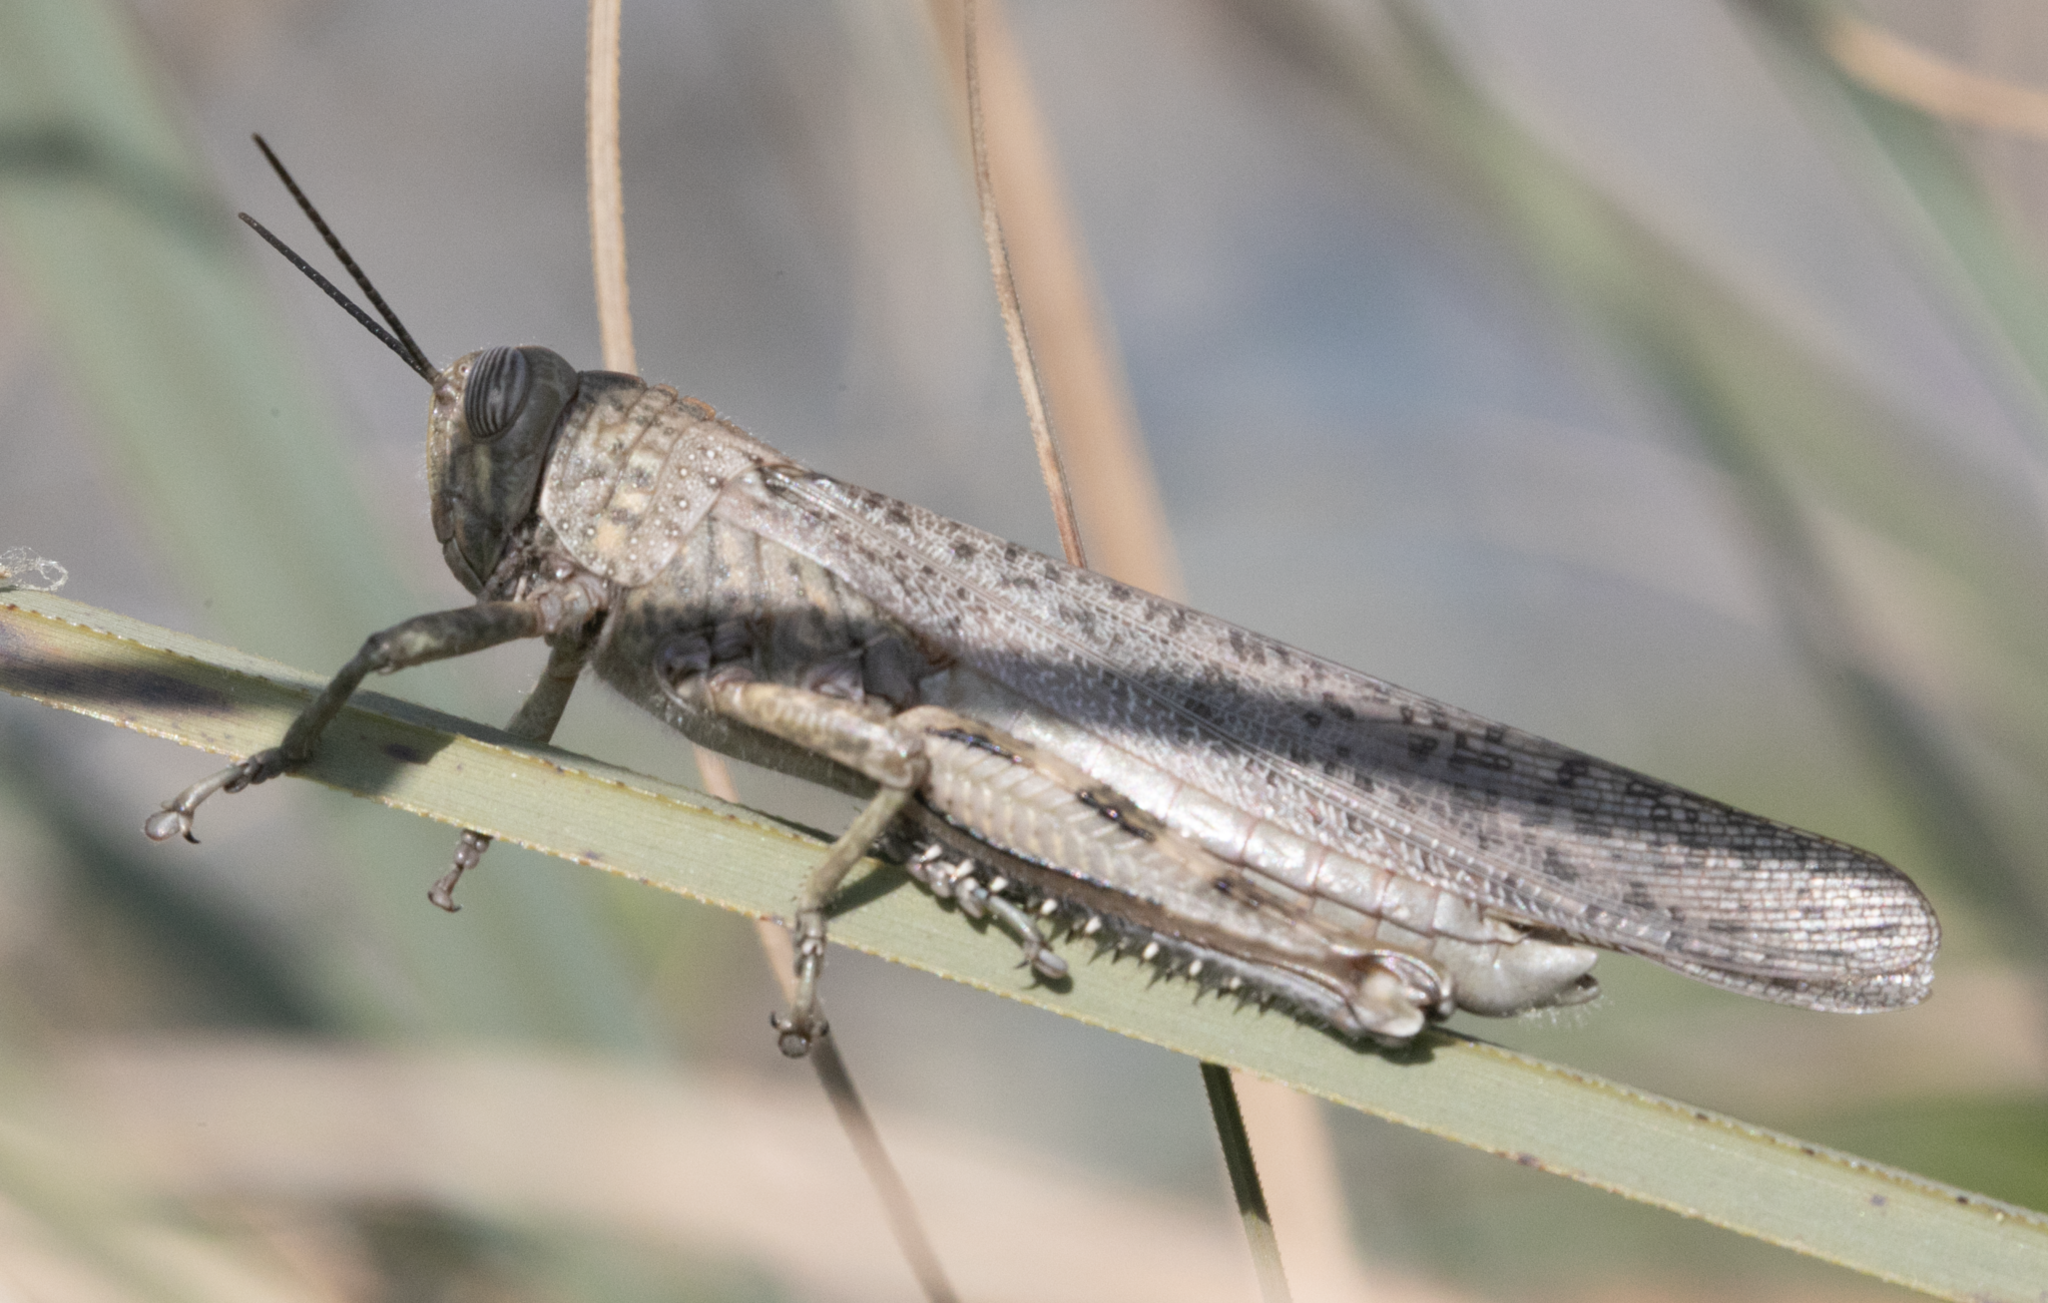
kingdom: Animalia
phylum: Arthropoda
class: Insecta
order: Orthoptera
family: Acrididae
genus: Anacridium
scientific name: Anacridium aegyptium
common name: Egyptian grasshopper
